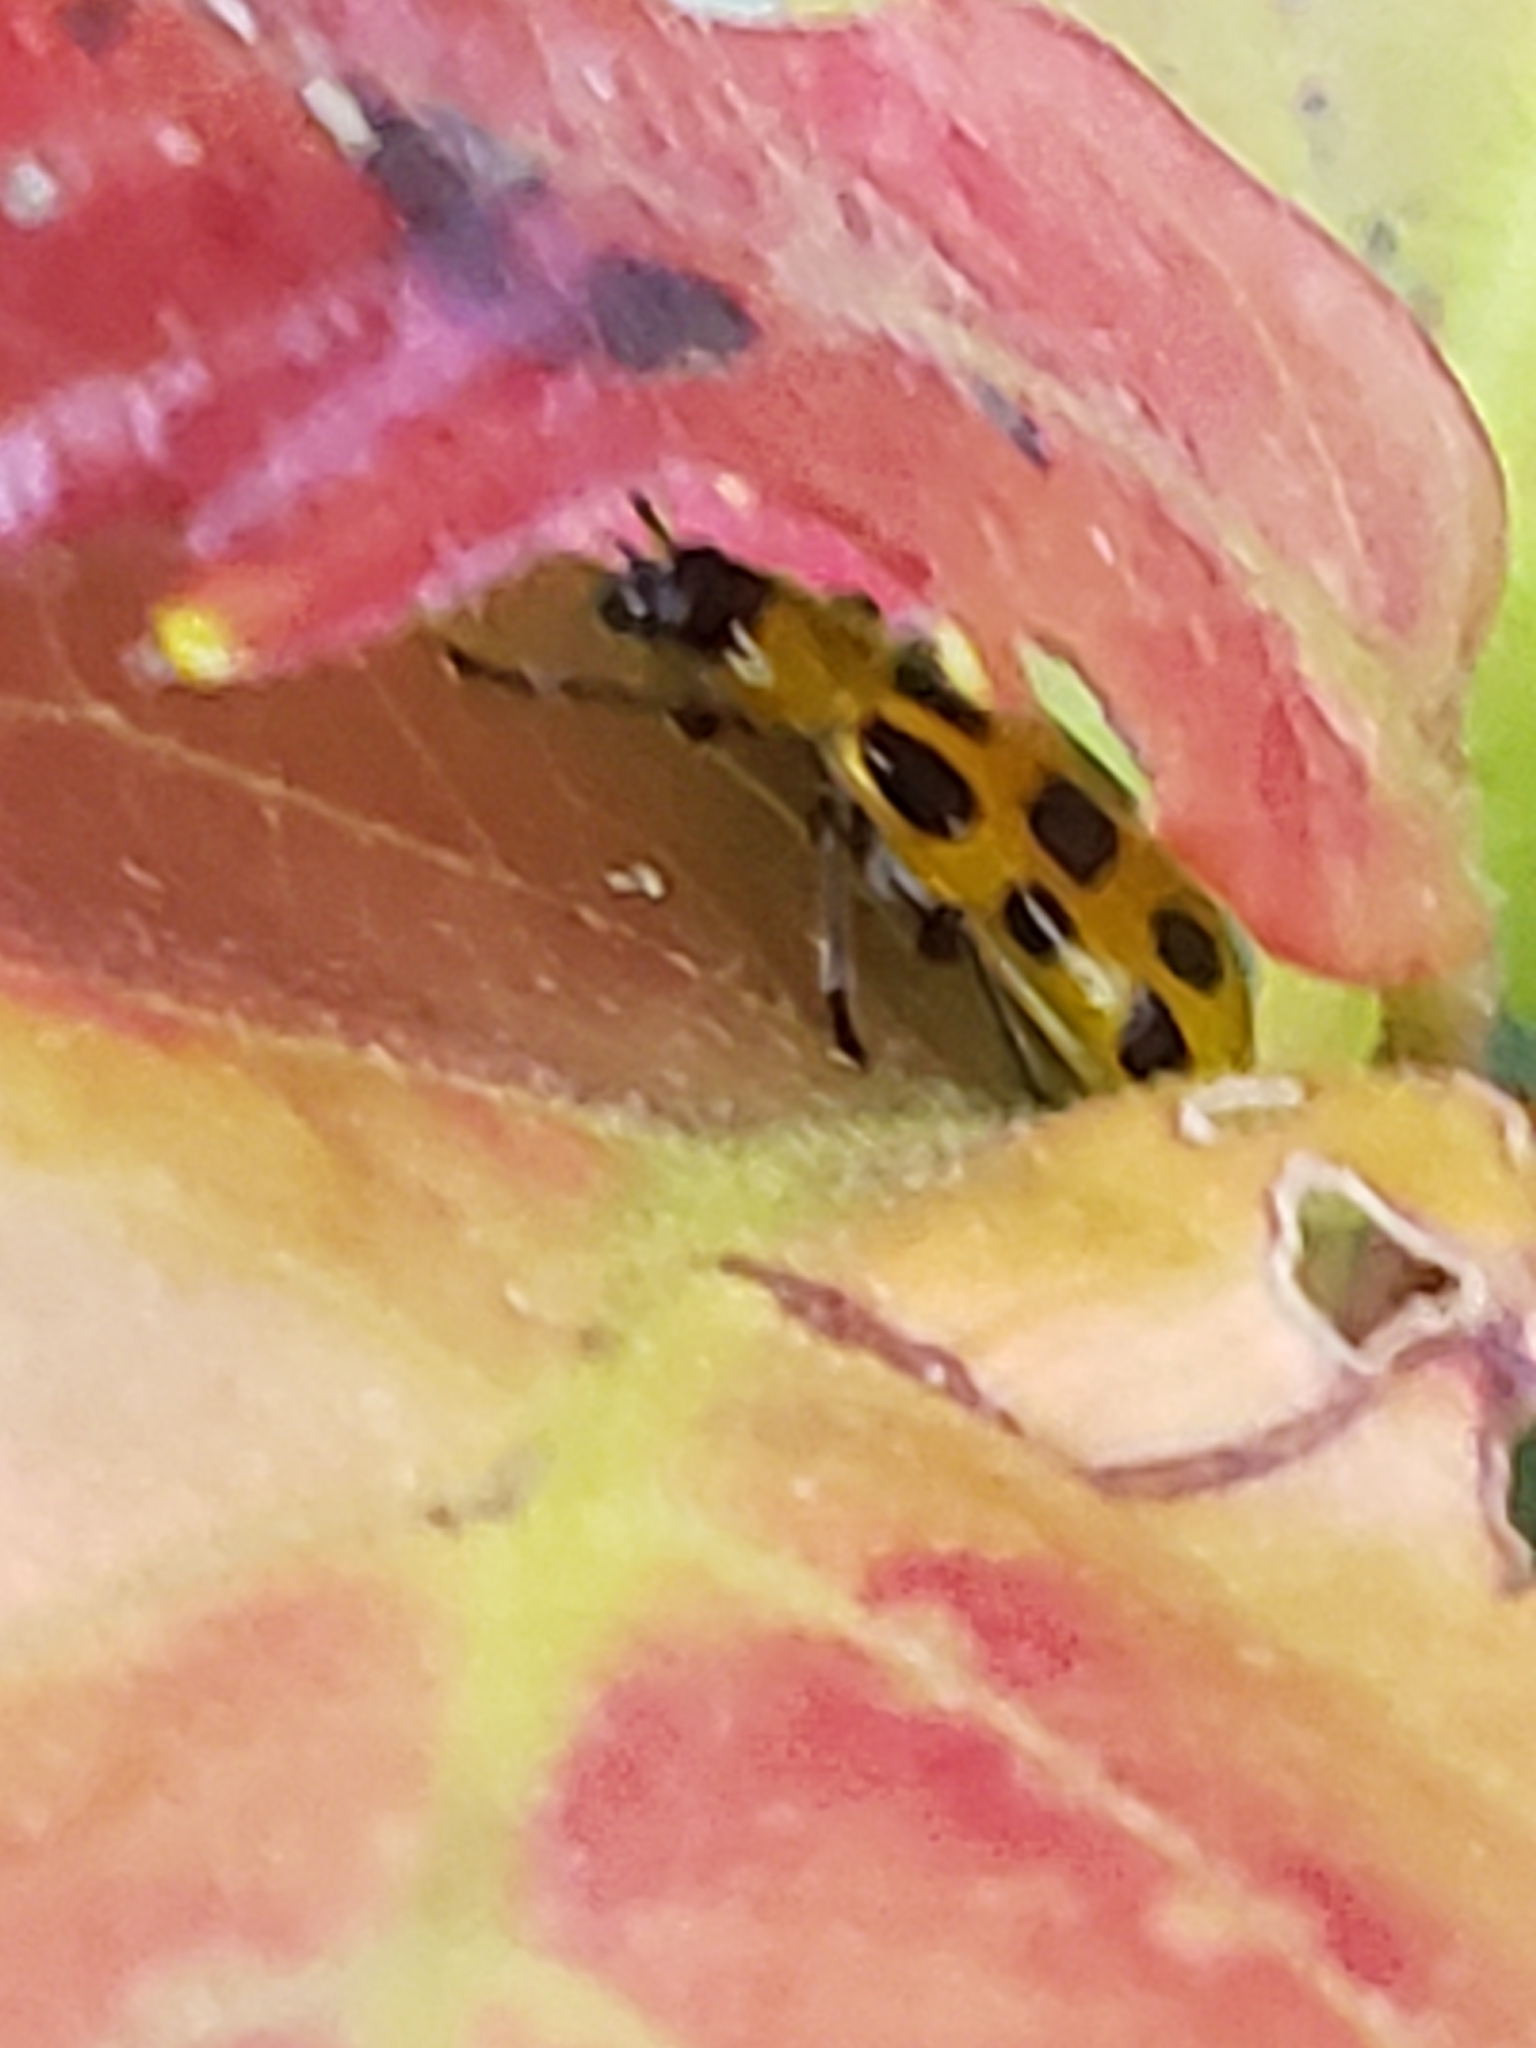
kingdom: Animalia
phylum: Arthropoda
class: Insecta
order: Coleoptera
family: Chrysomelidae
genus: Diabrotica
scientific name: Diabrotica undecimpunctata
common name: Spotted cucumber beetle
